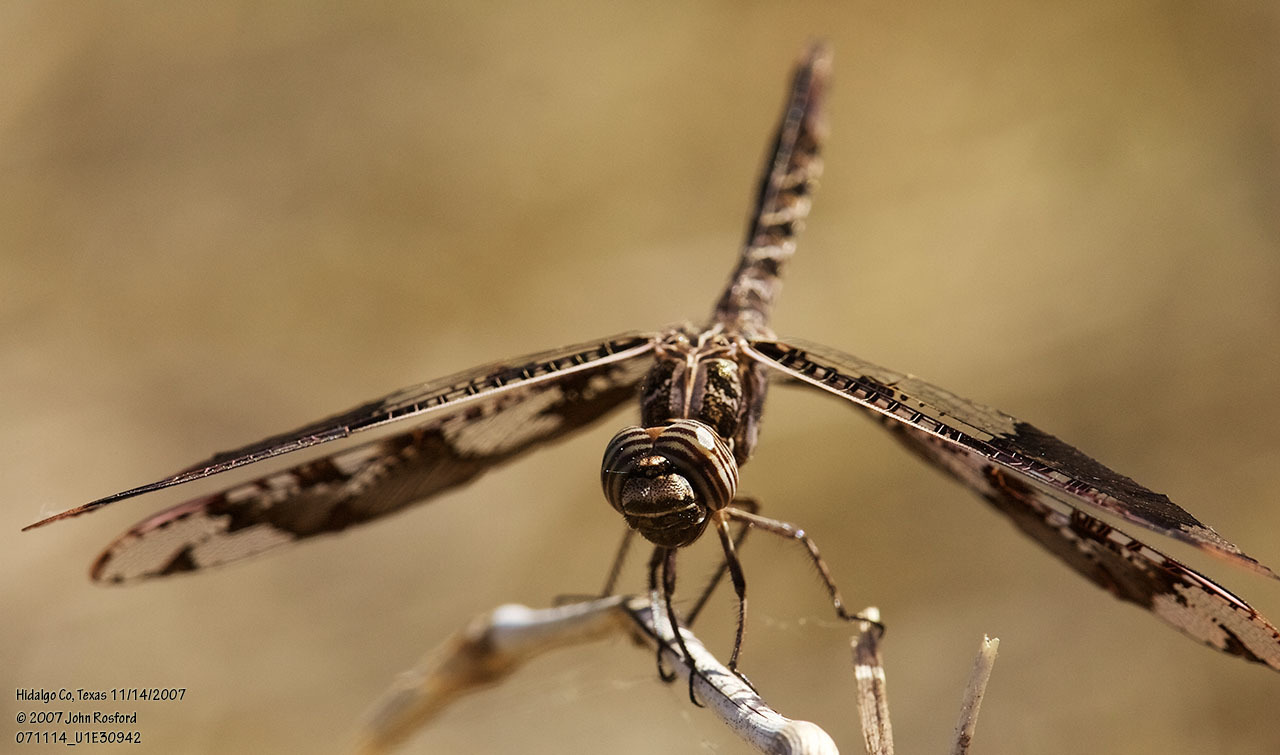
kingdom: Animalia
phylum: Arthropoda
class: Insecta
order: Odonata
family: Libellulidae
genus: Pseudoleon
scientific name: Pseudoleon superbus
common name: Filigree skimmer
